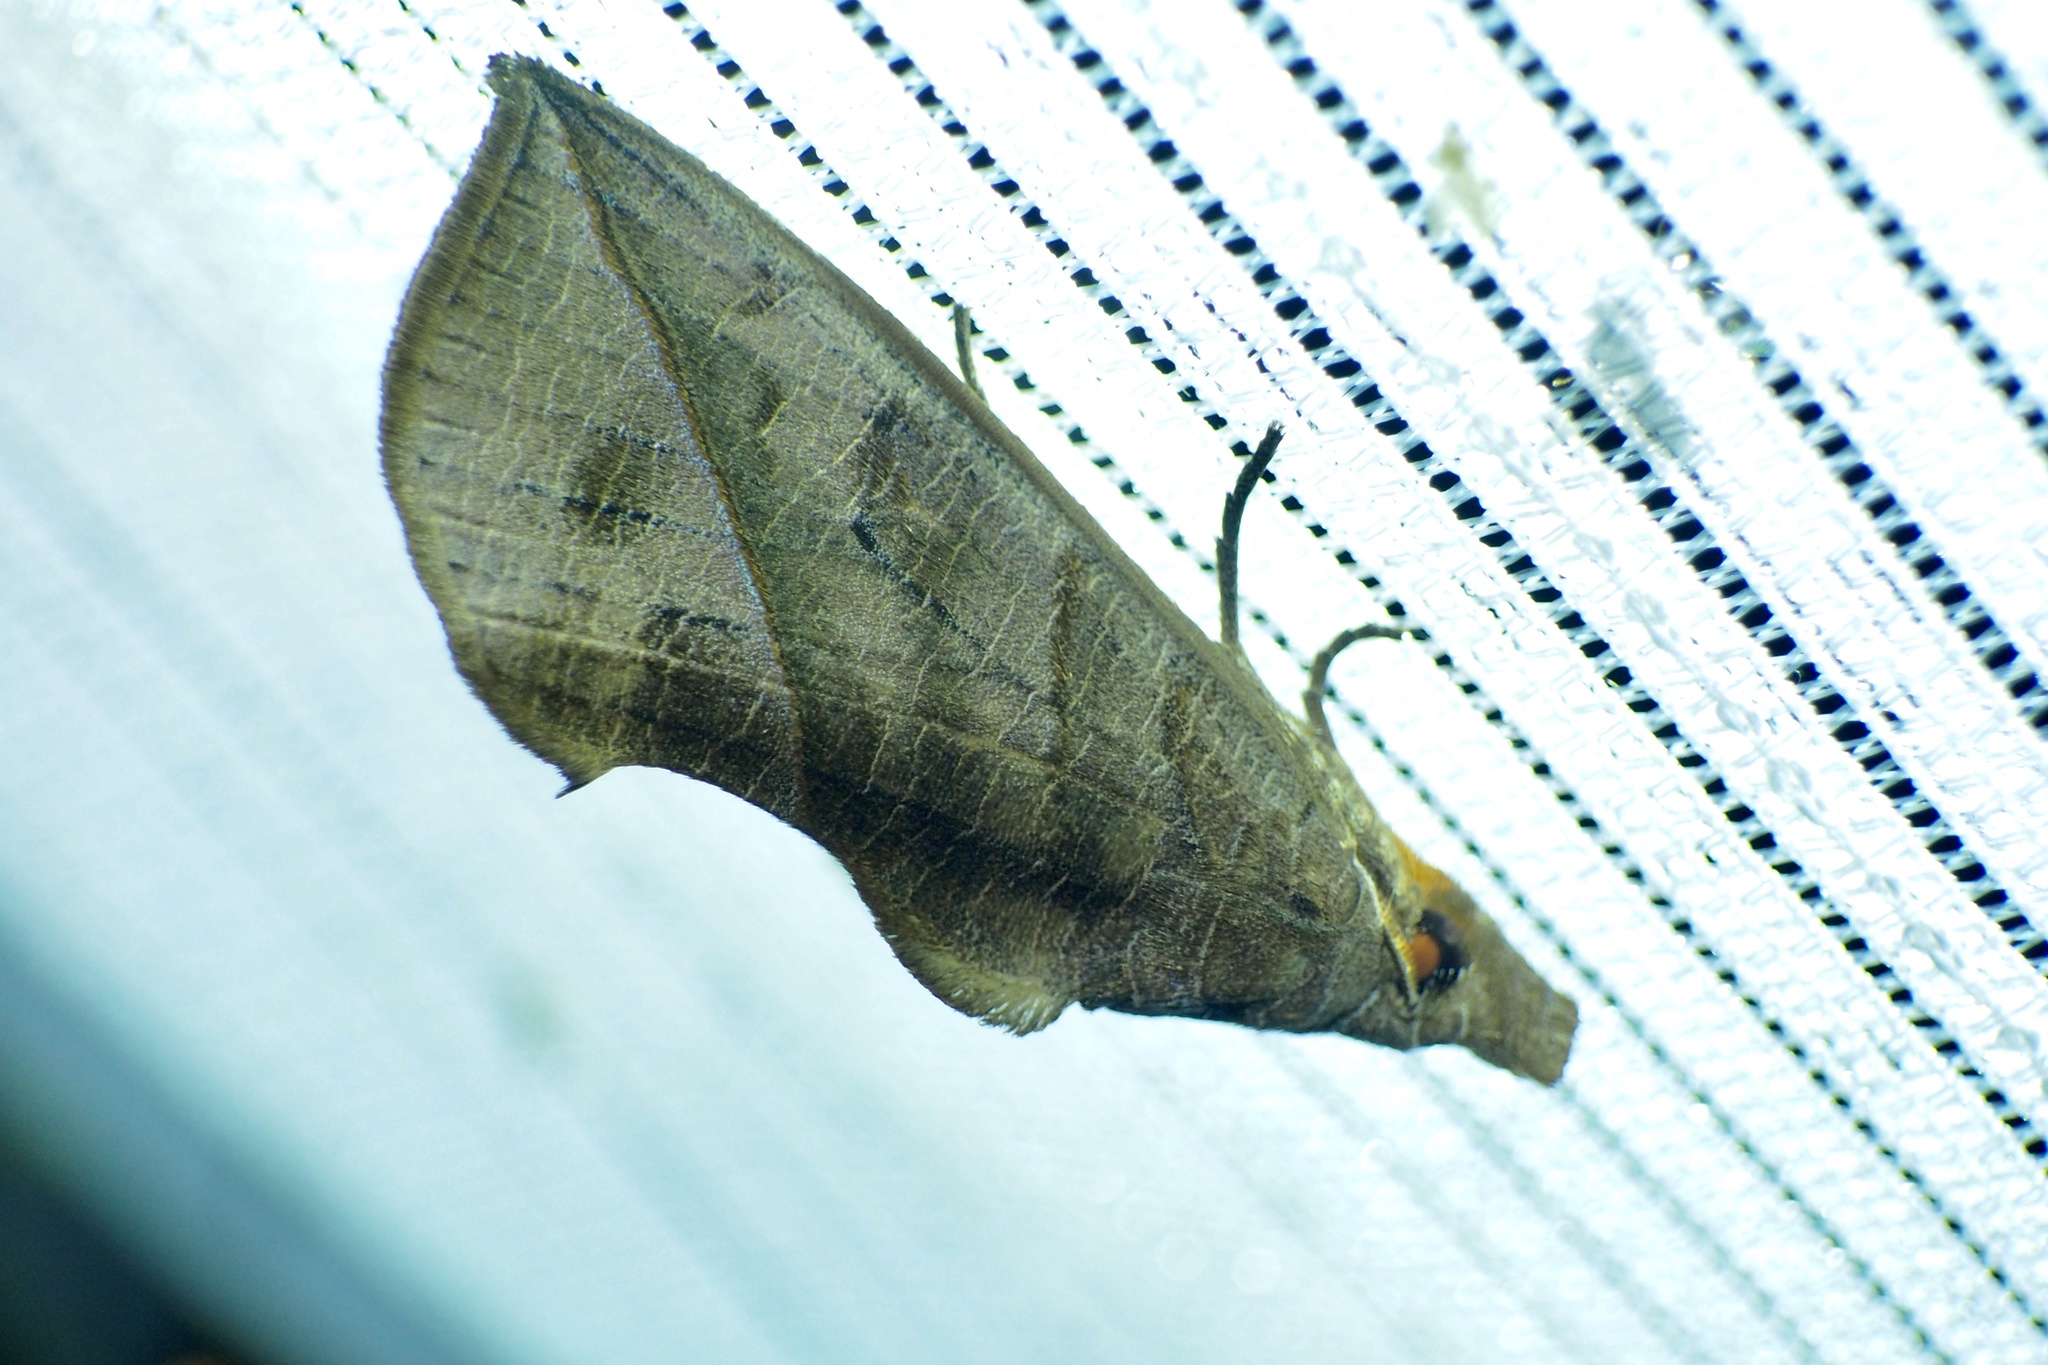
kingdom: Animalia
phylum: Arthropoda
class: Insecta
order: Lepidoptera
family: Erebidae
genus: Calyptra
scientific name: Calyptra gruesa
